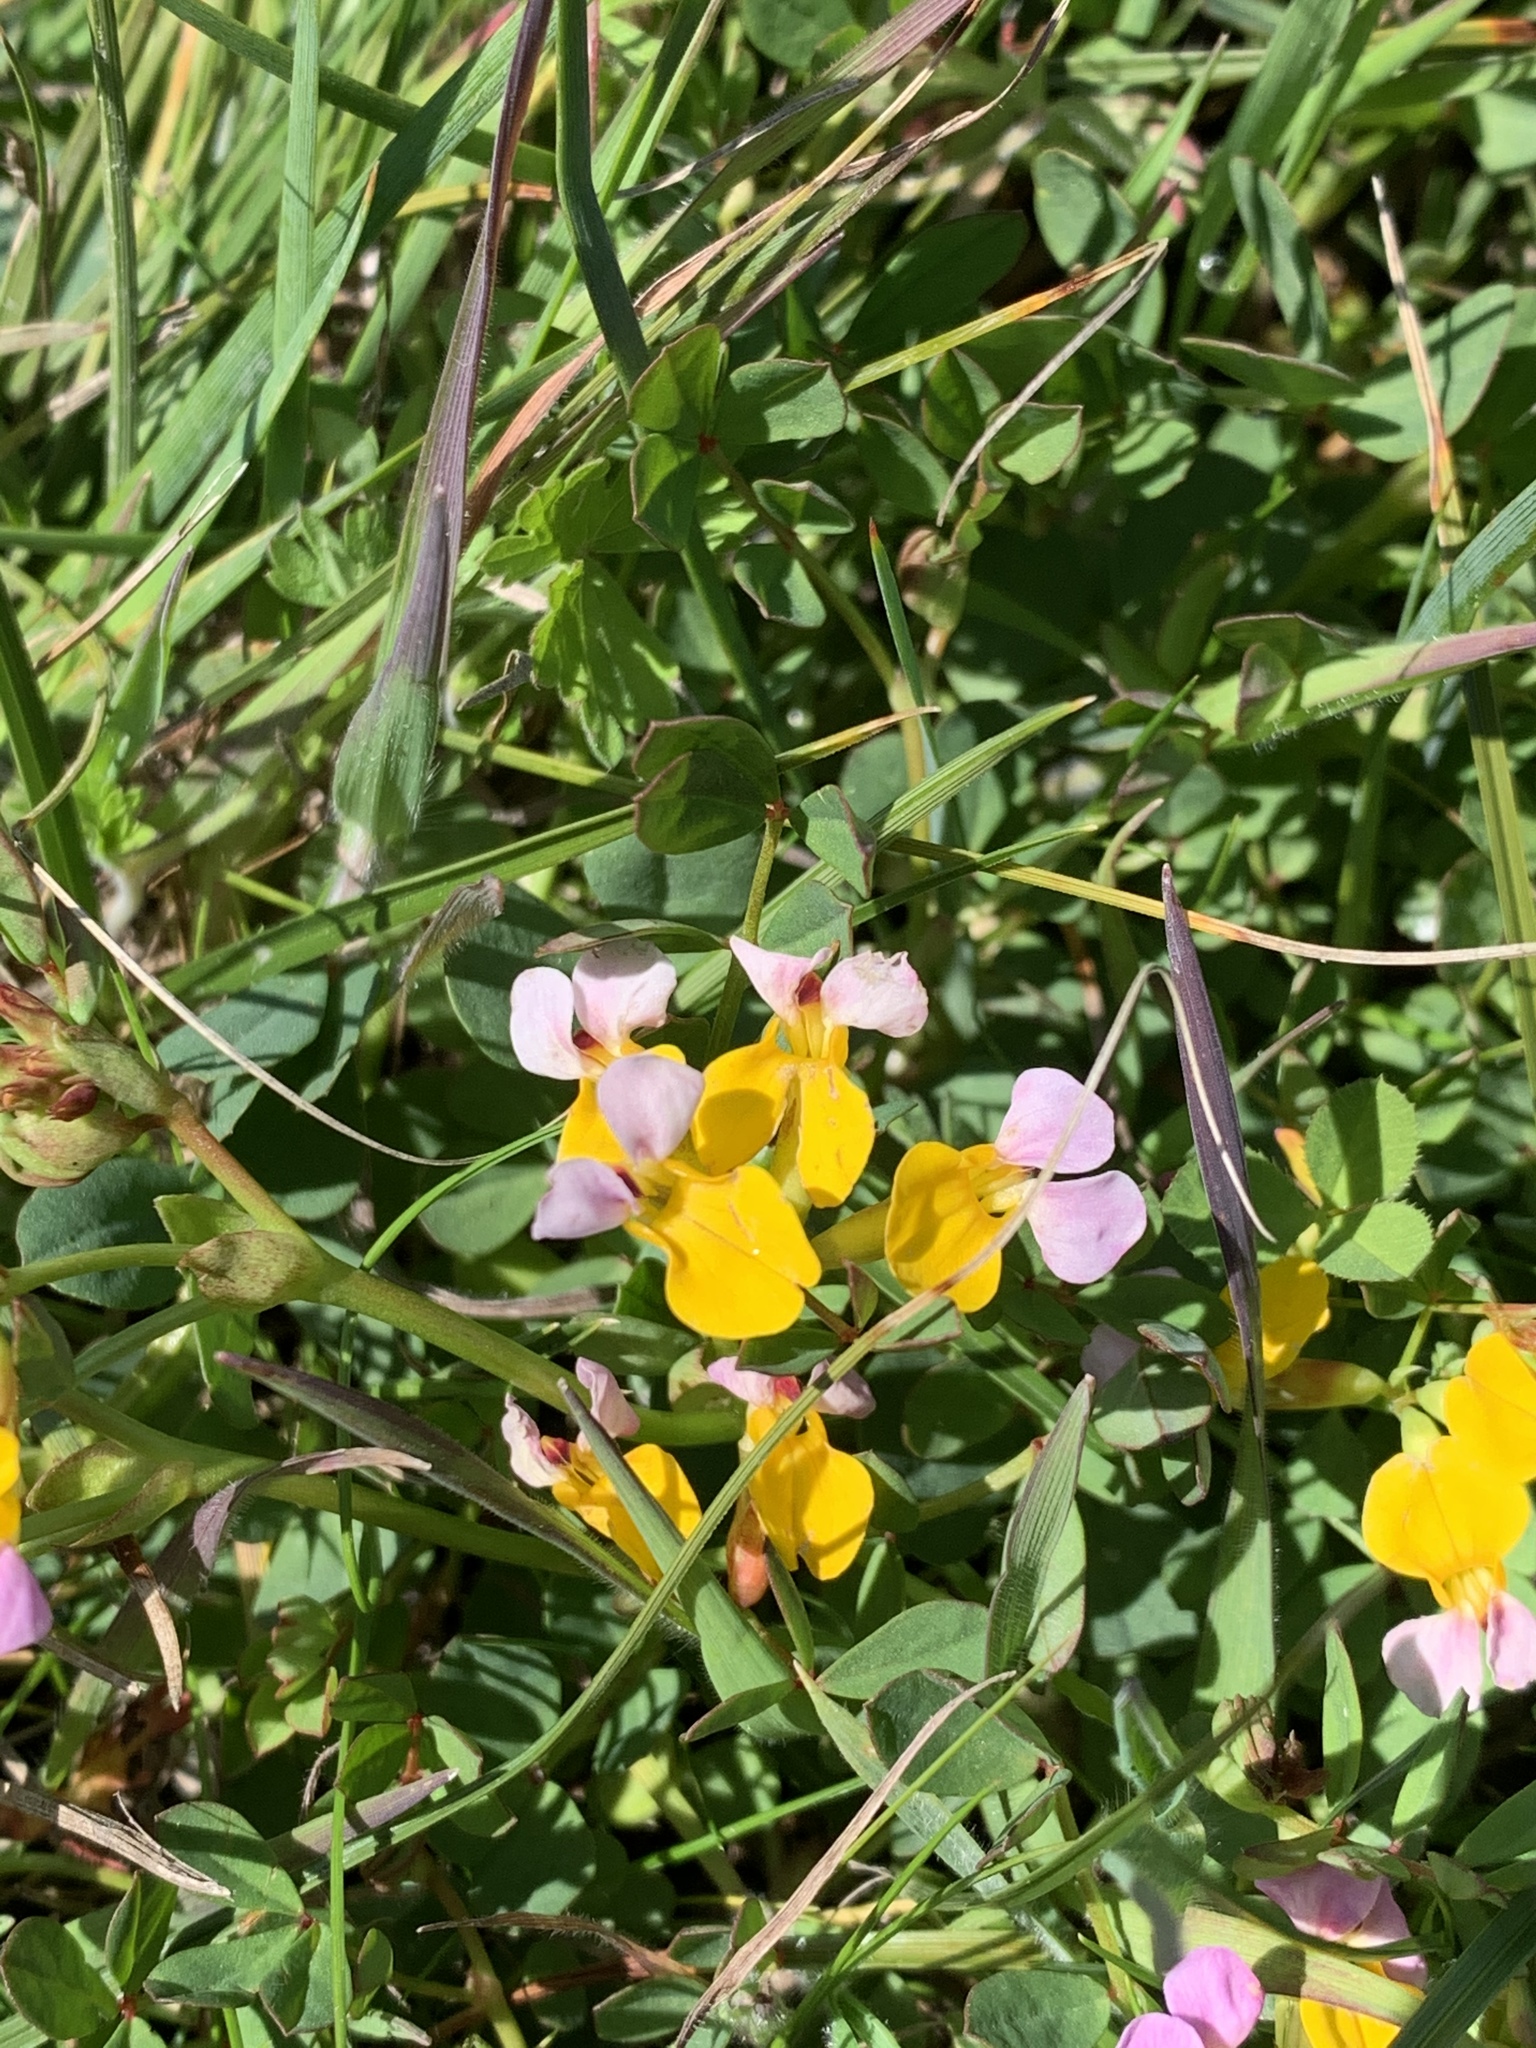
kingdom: Plantae
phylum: Tracheophyta
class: Magnoliopsida
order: Fabales
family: Fabaceae
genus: Hosackia
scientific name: Hosackia gracilis
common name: Seaside bird's-foot lotus
